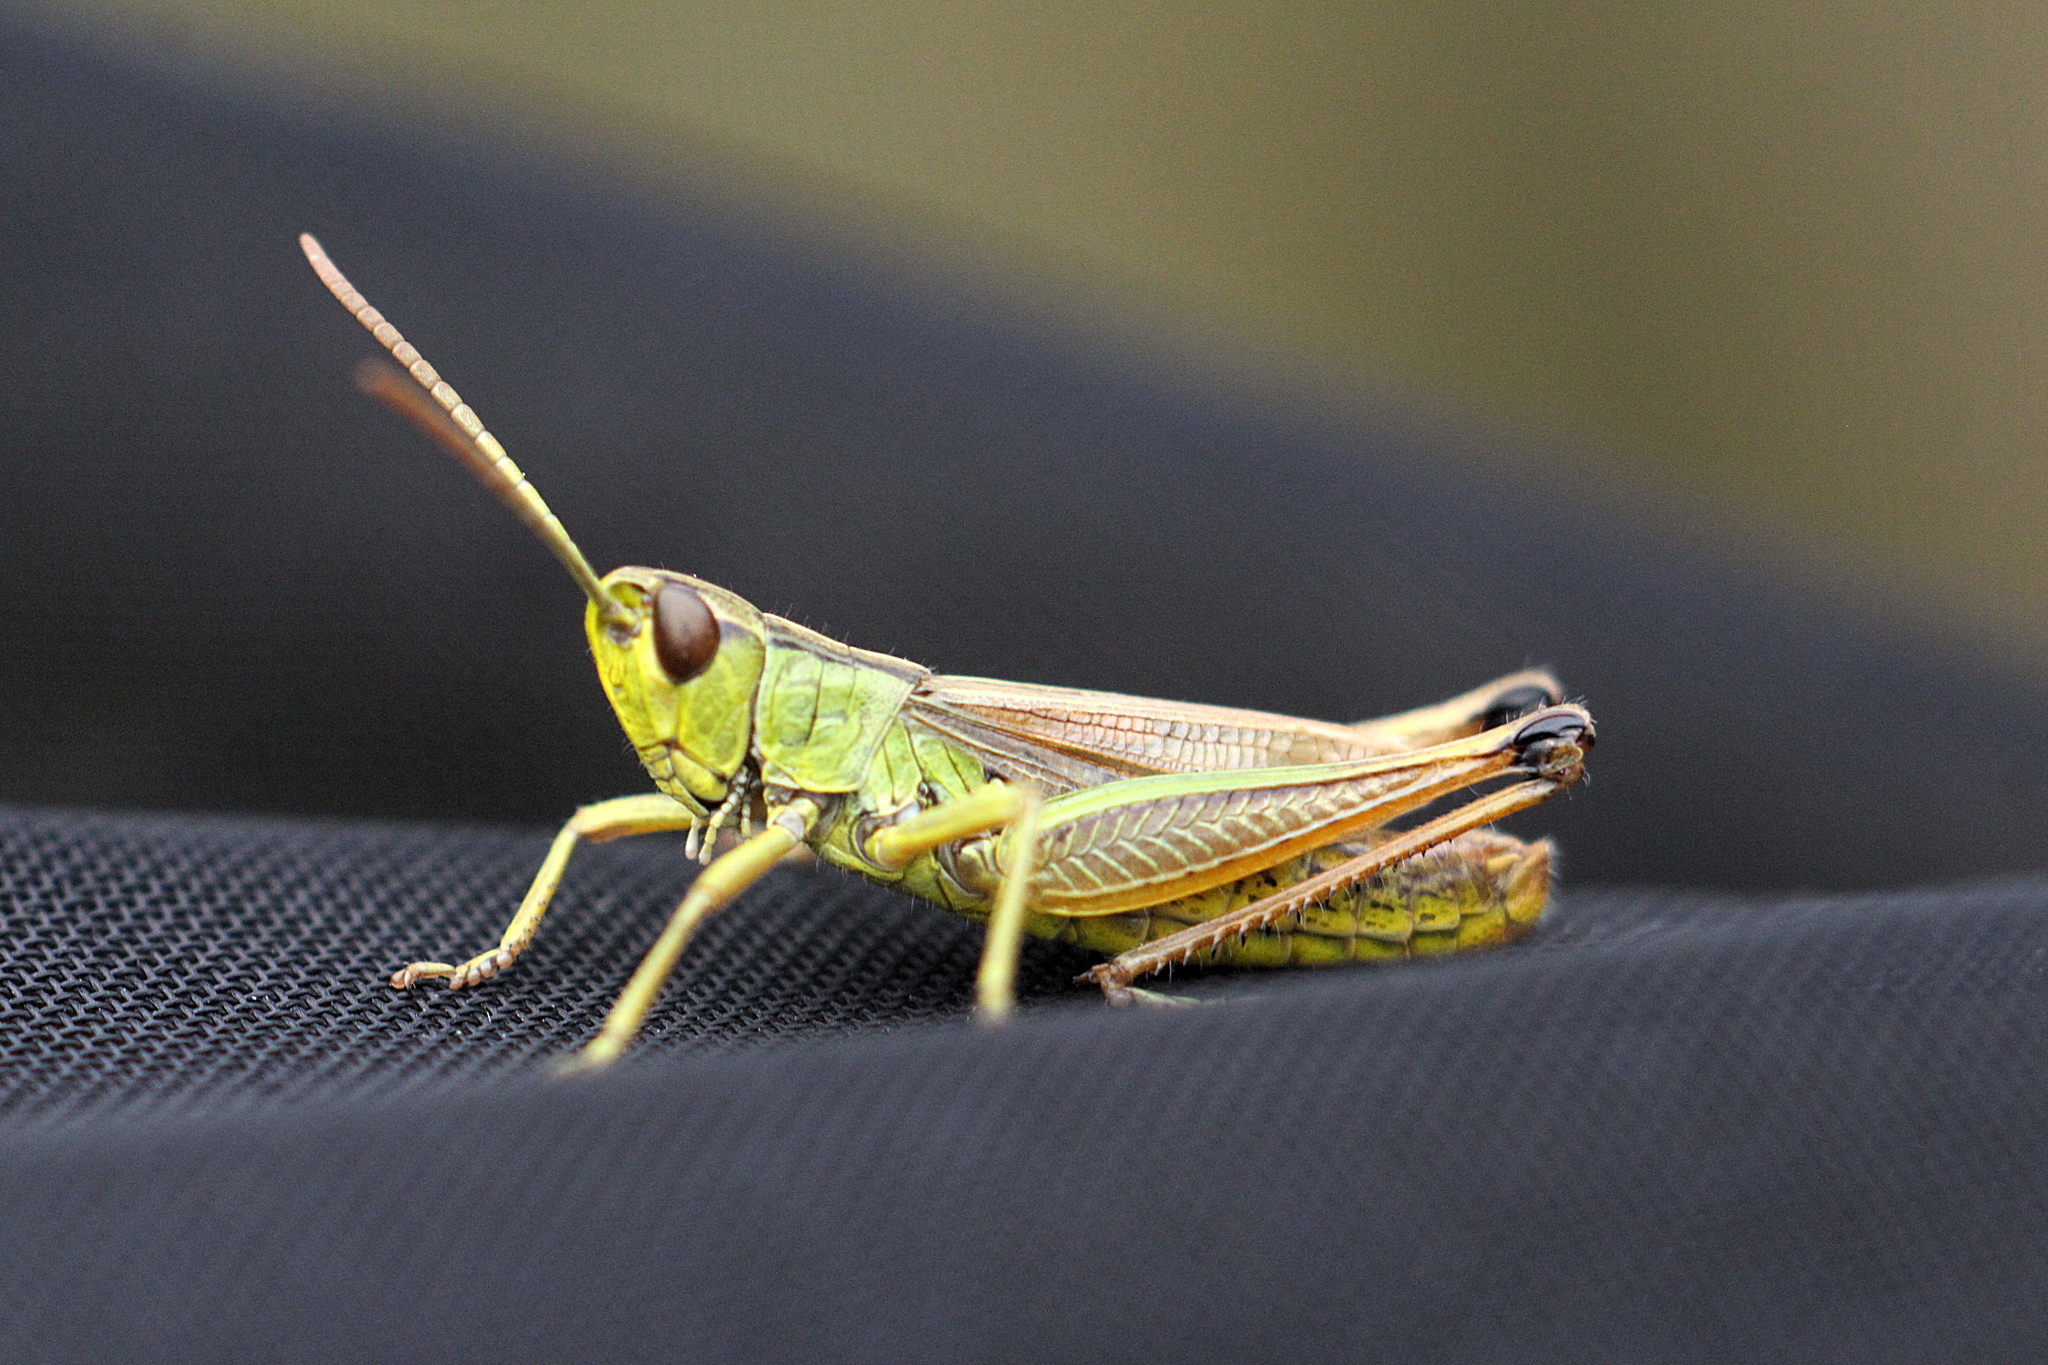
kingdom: Animalia
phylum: Arthropoda
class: Insecta
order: Orthoptera
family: Acrididae
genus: Pseudochorthippus
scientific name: Pseudochorthippus parallelus
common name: Meadow grasshopper
